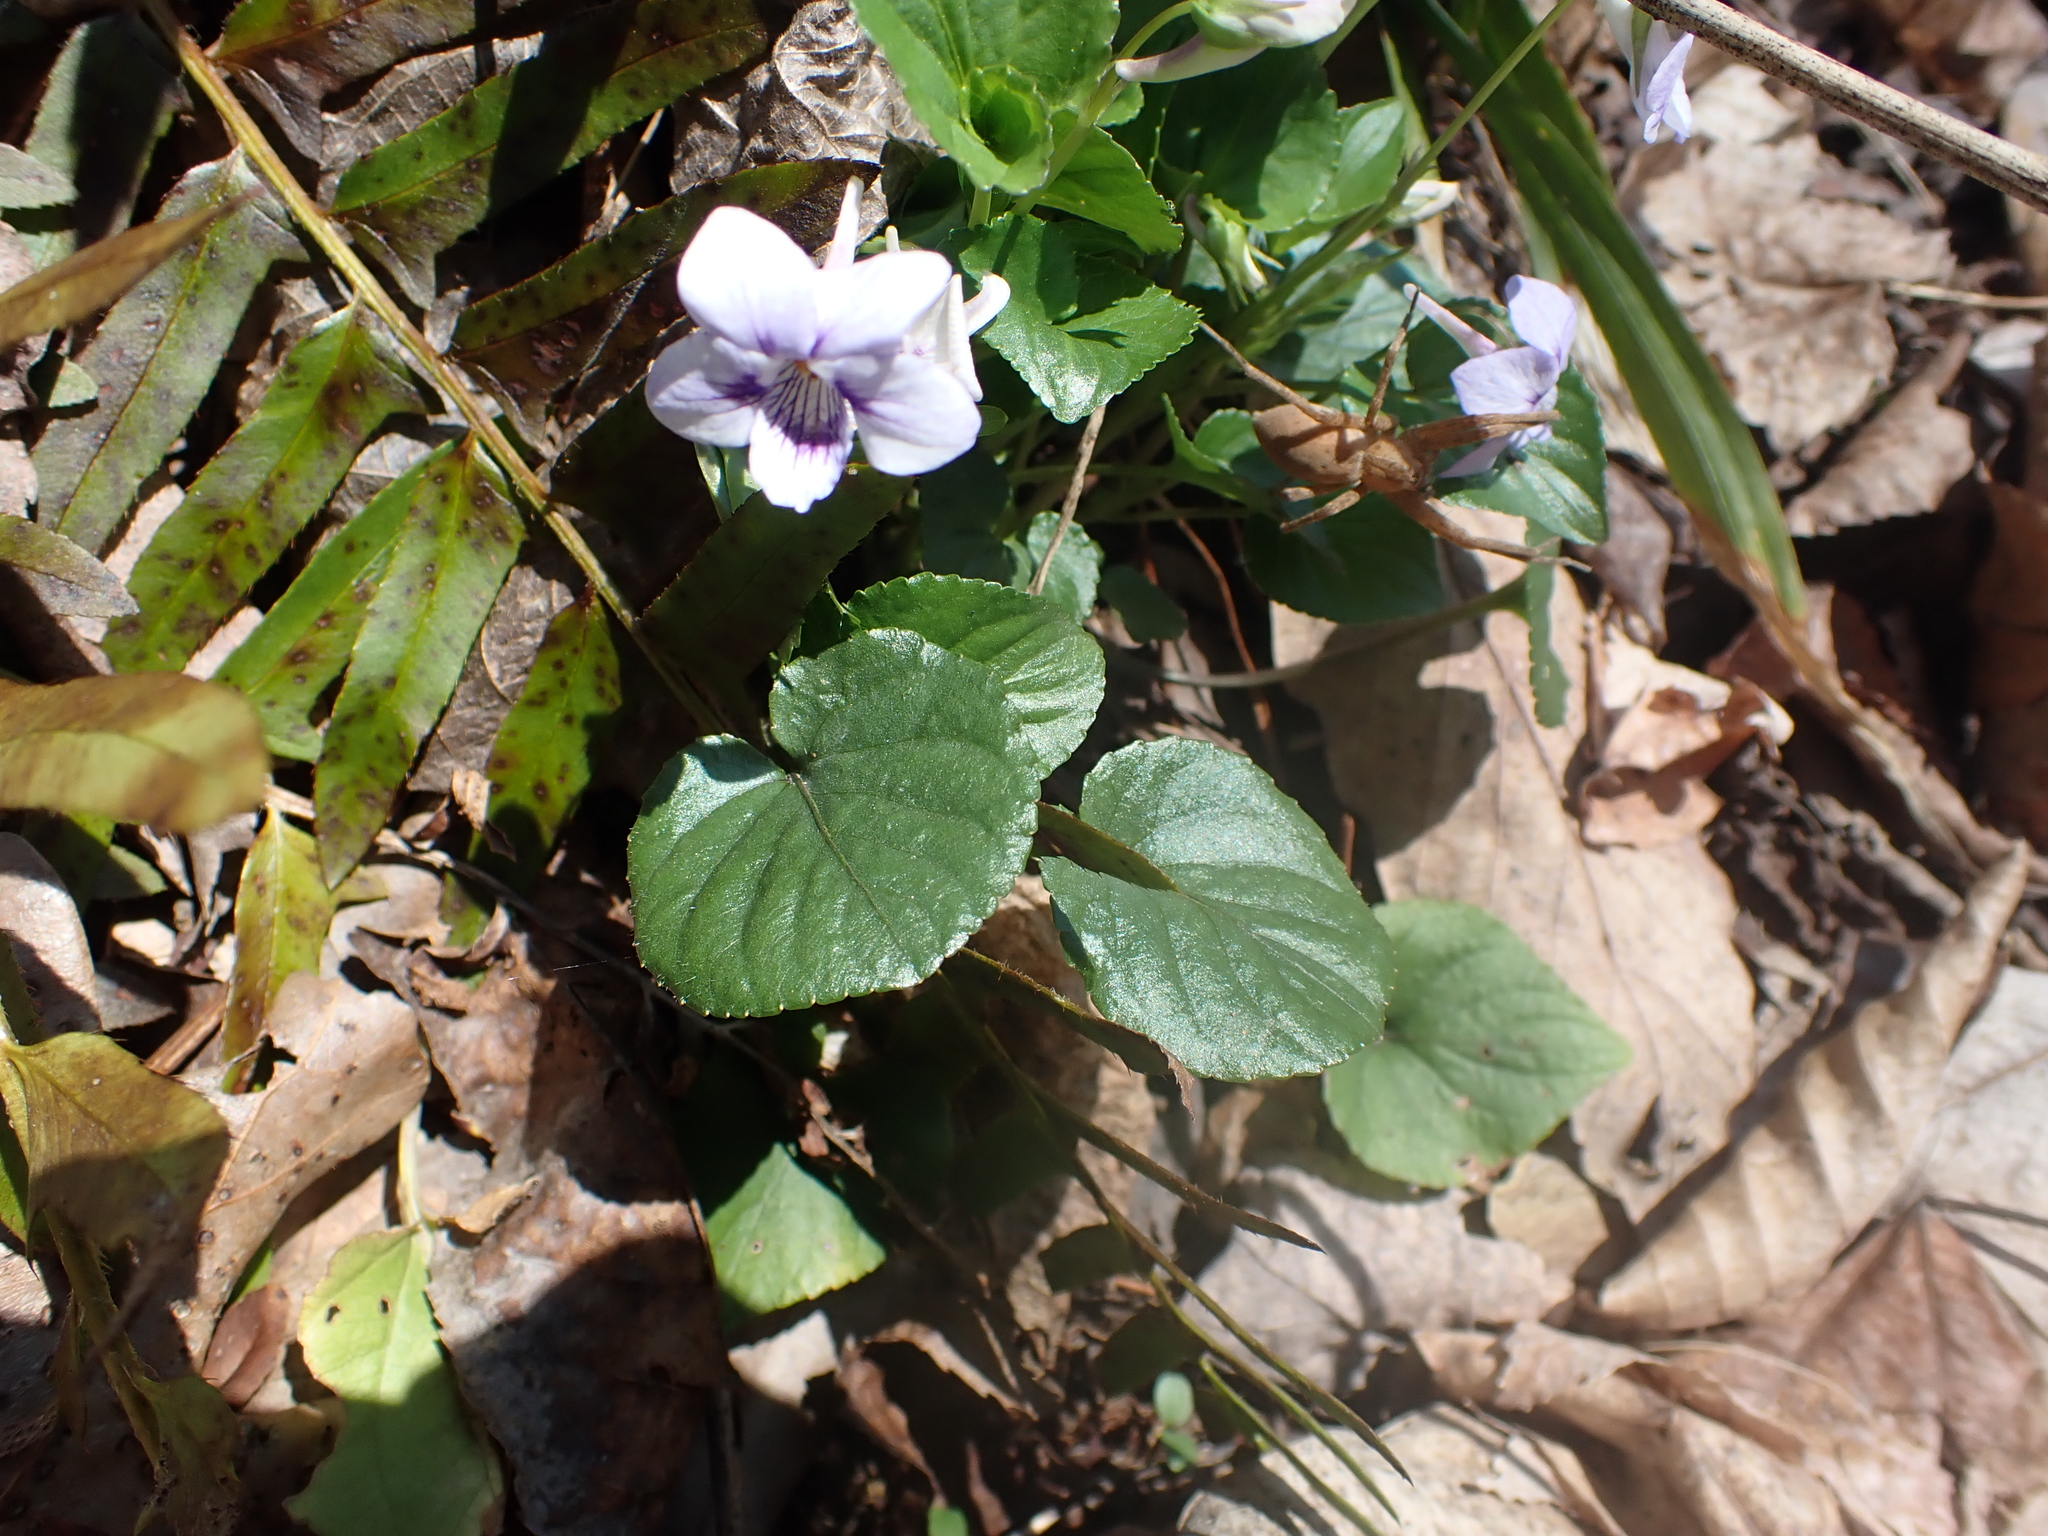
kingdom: Plantae
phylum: Tracheophyta
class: Magnoliopsida
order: Malpighiales
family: Violaceae
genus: Viola
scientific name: Viola rostrata
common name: Long-spur violet
